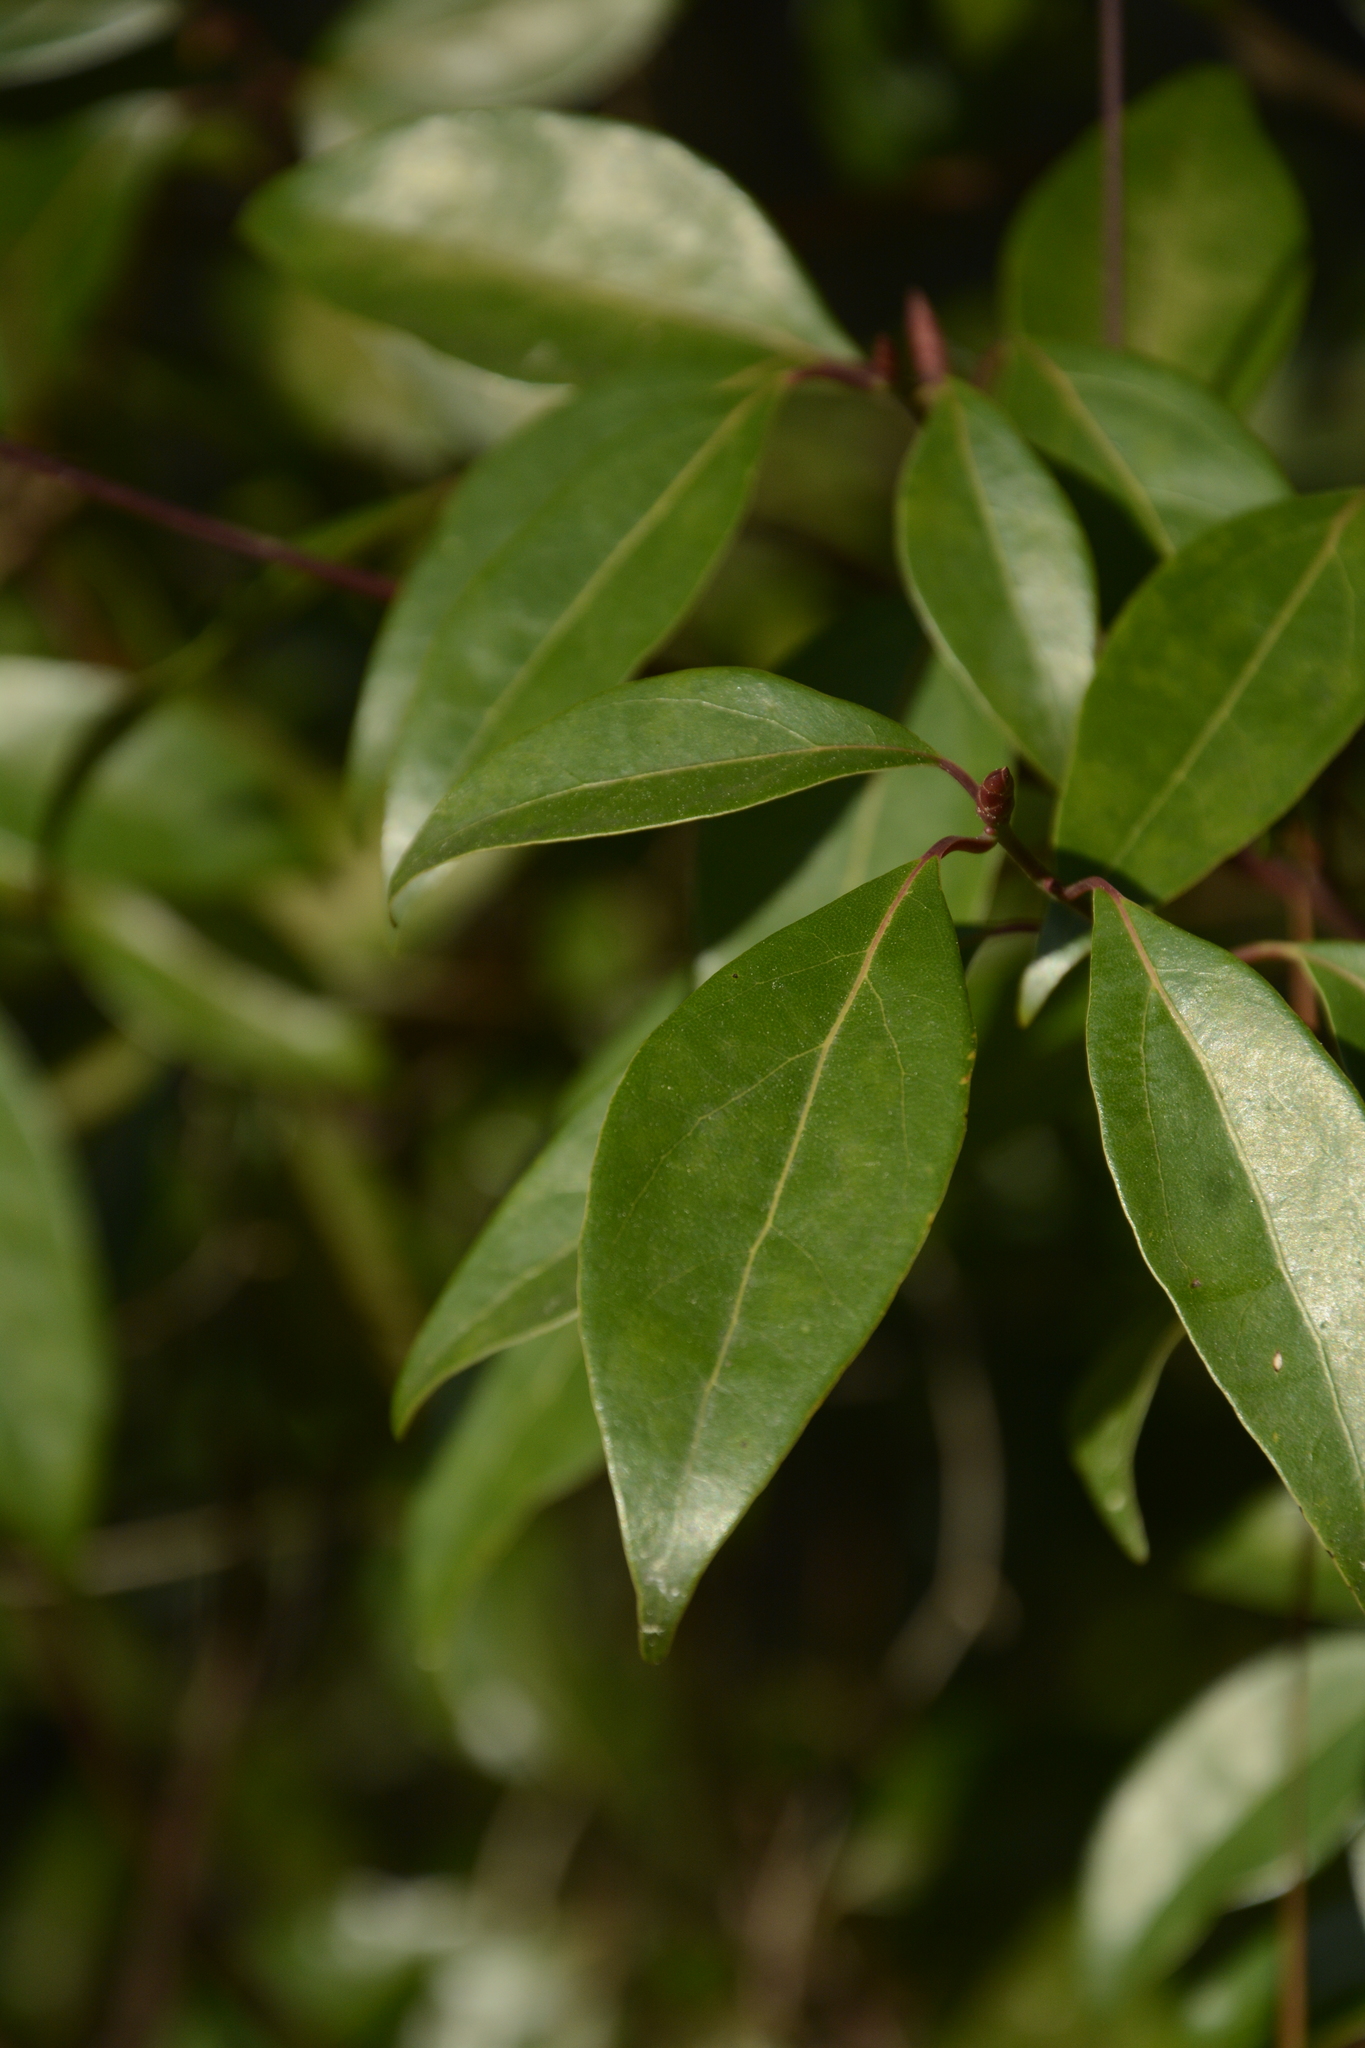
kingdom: Plantae
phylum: Tracheophyta
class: Magnoliopsida
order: Laurales
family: Lauraceae
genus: Cinnamomum
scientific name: Cinnamomum camphora
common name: Camphortree
